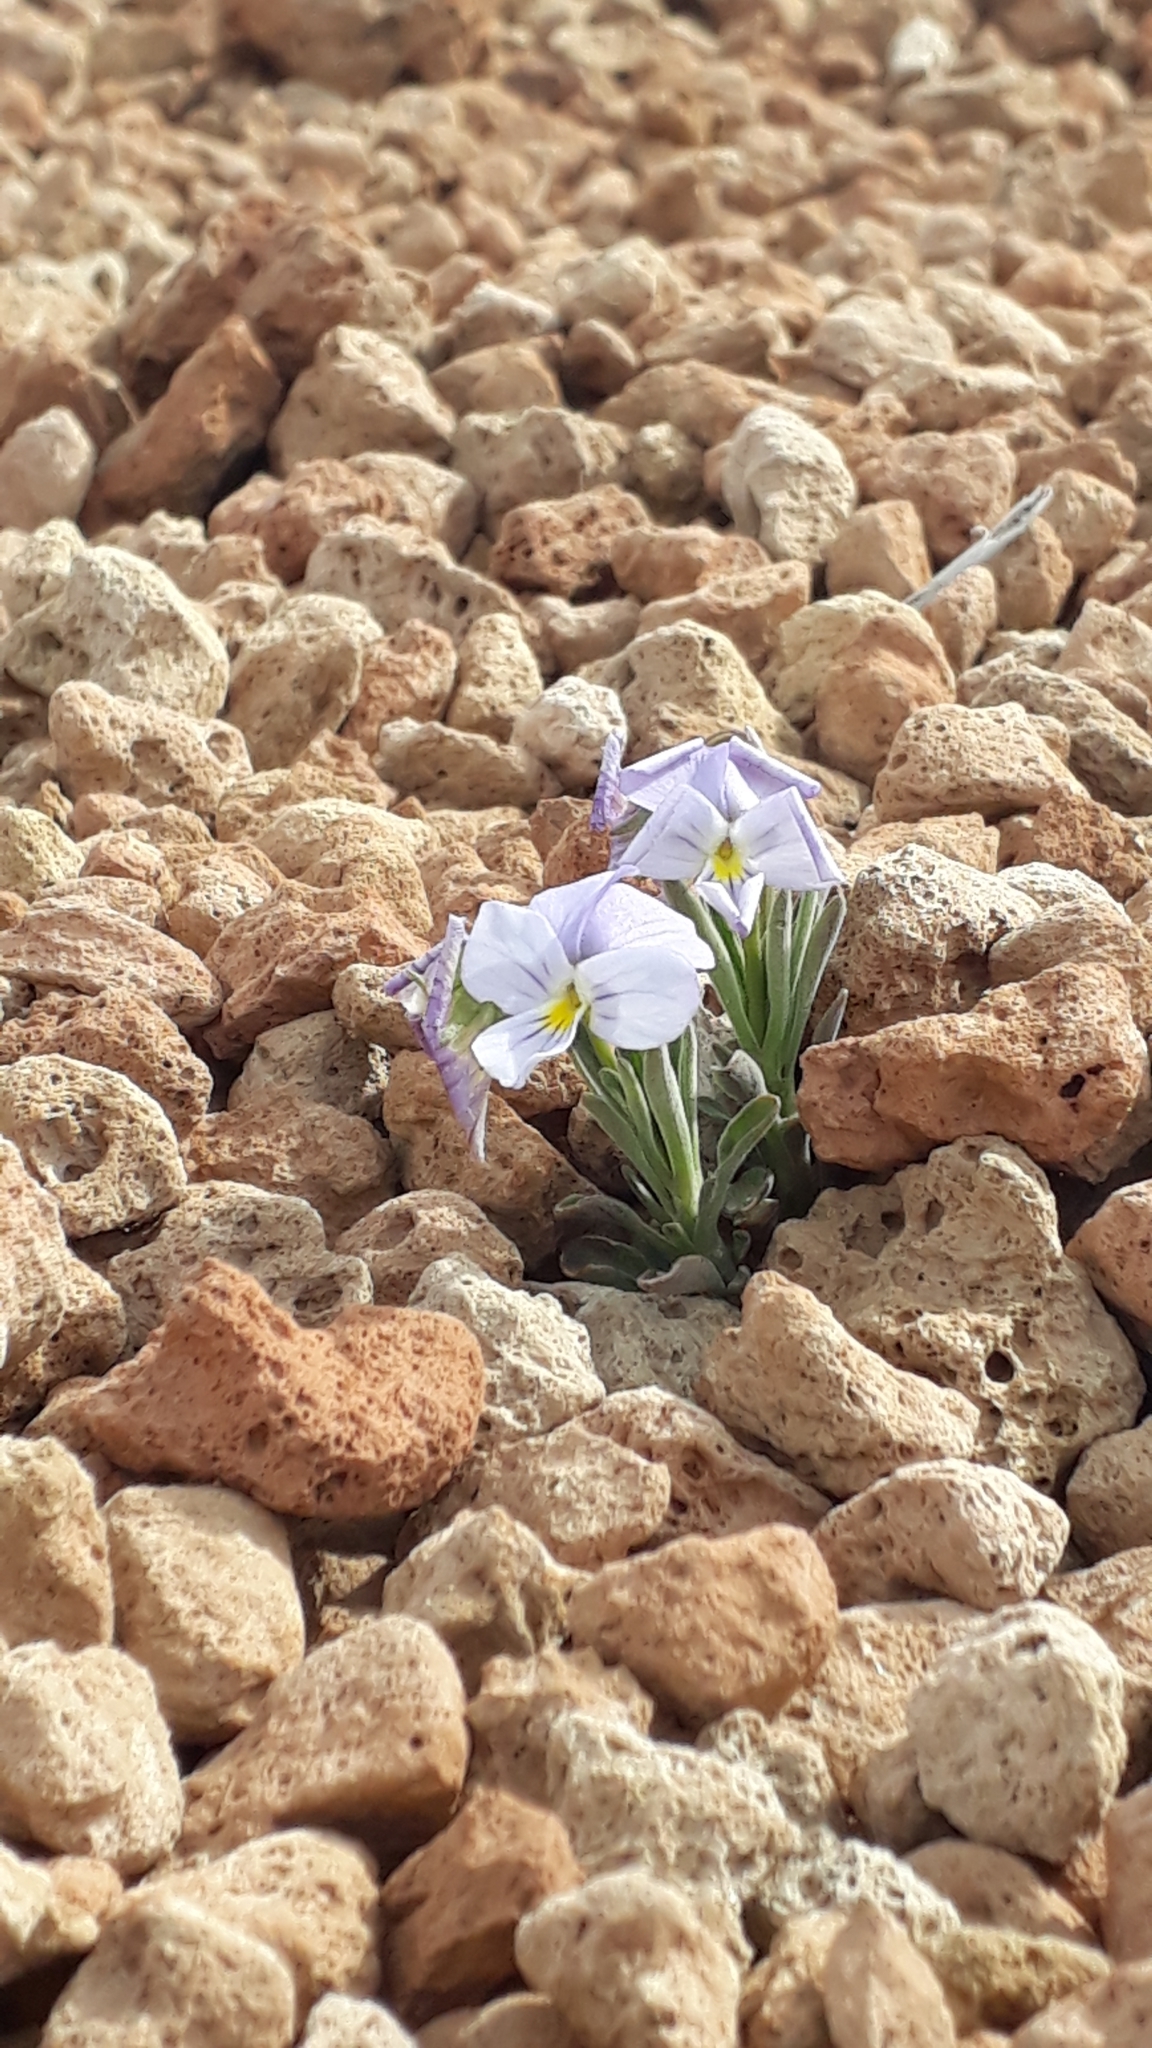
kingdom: Plantae
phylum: Tracheophyta
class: Magnoliopsida
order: Malpighiales
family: Violaceae
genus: Viola
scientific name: Viola cheiranthifolia
